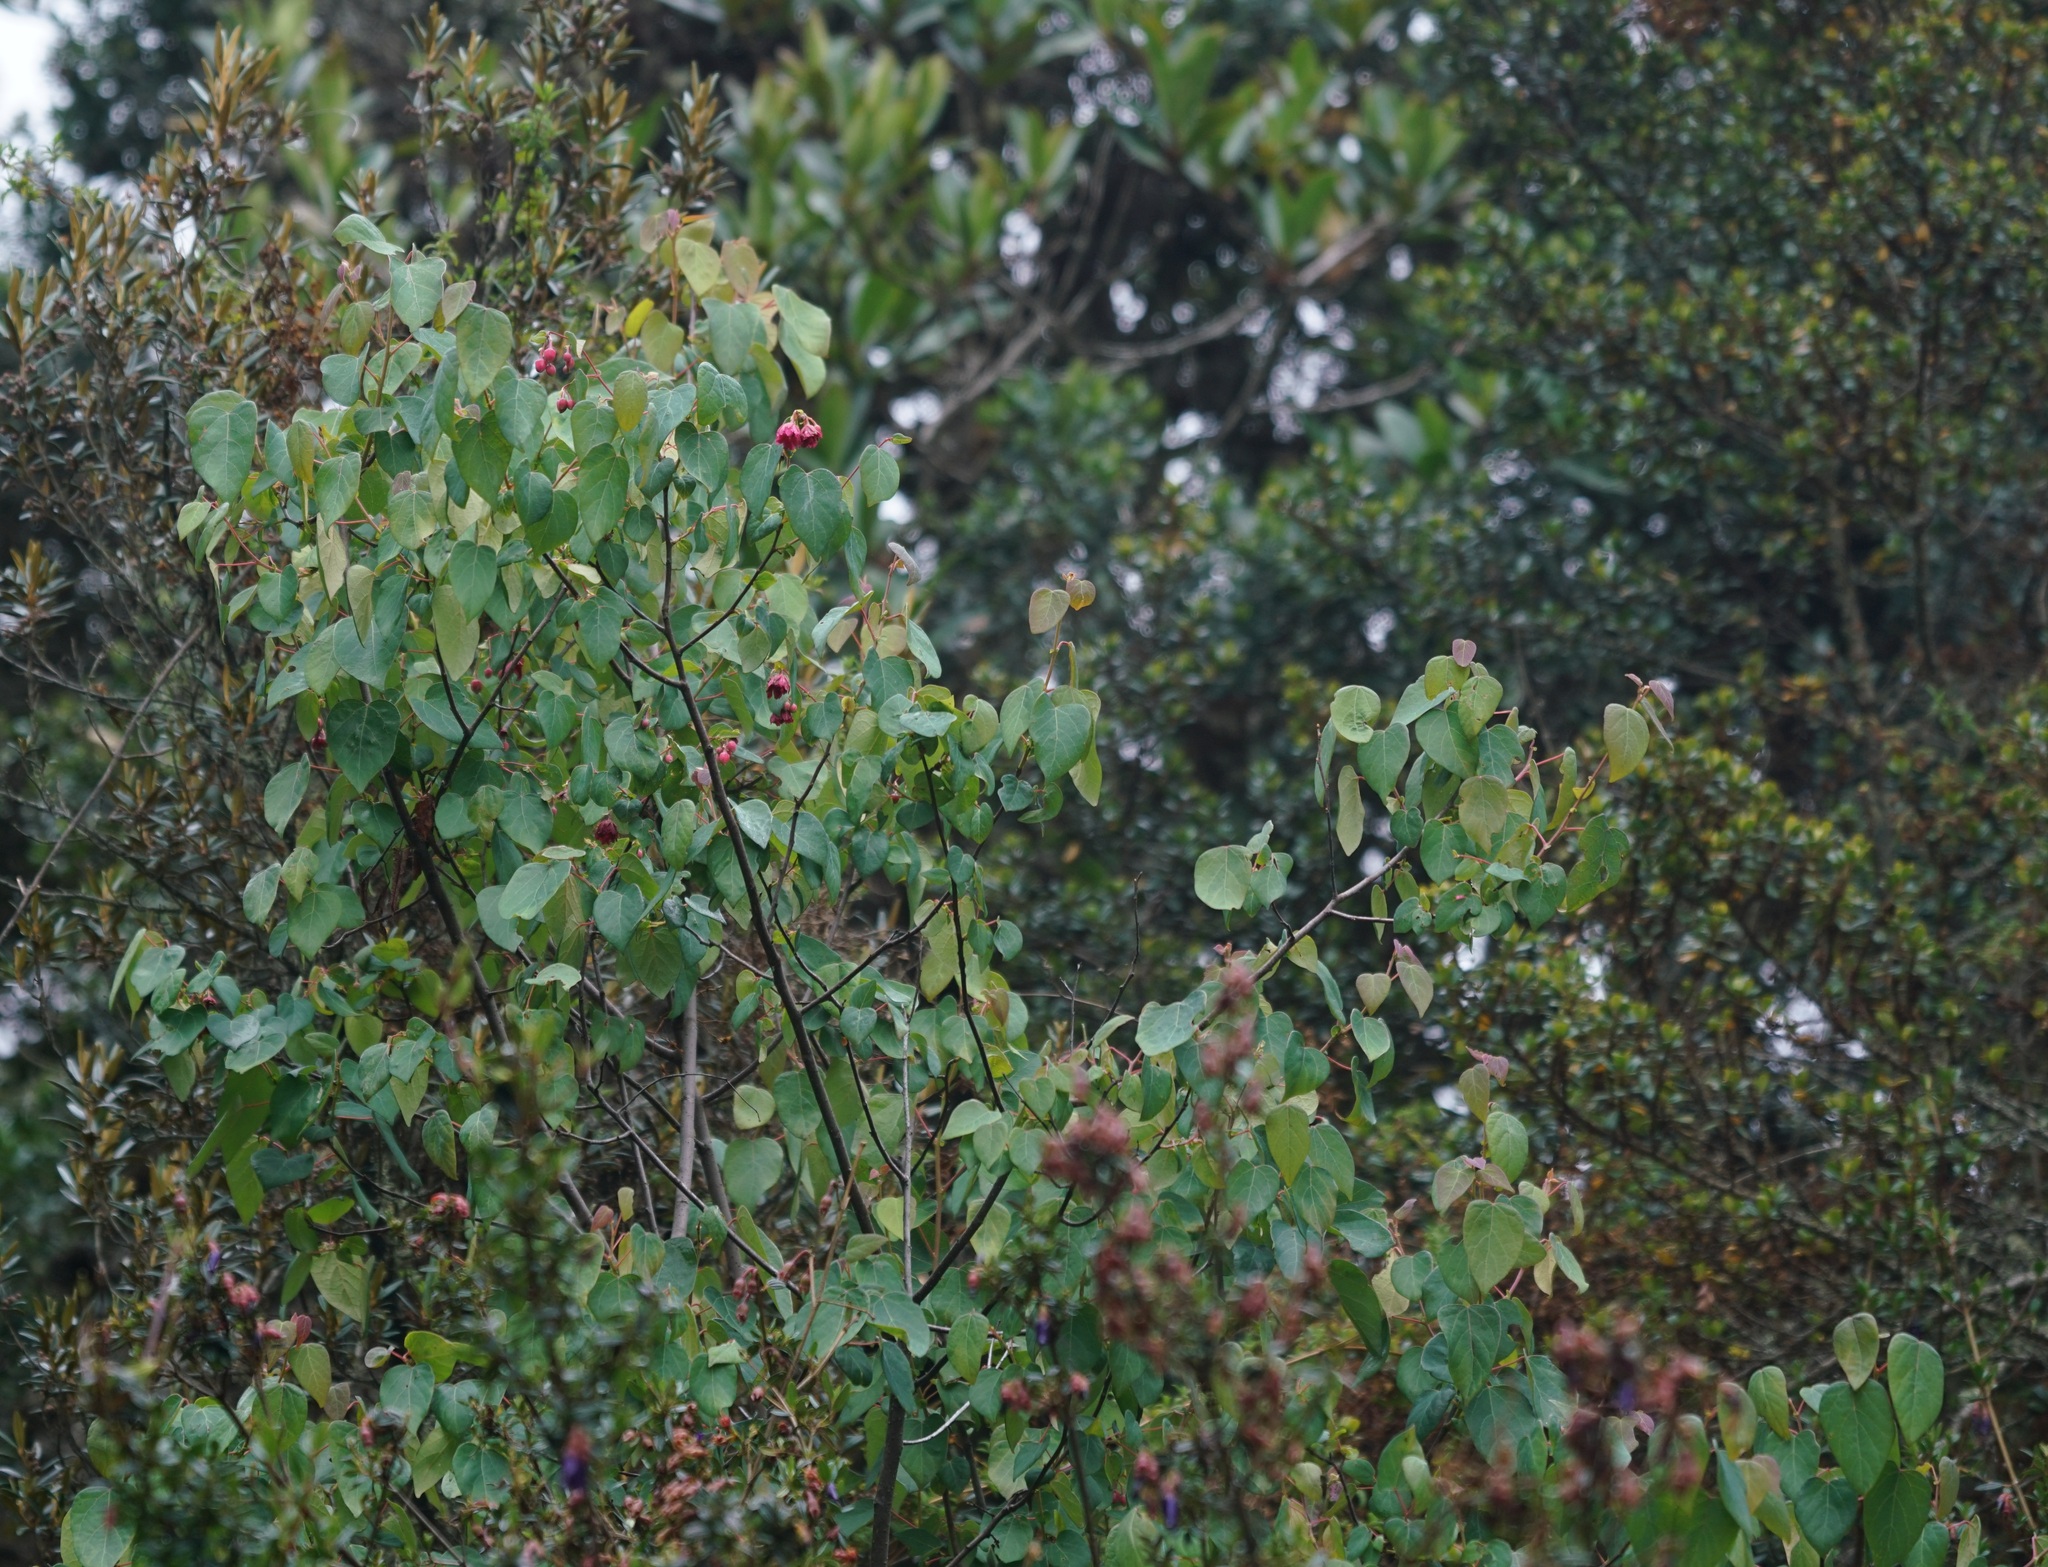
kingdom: Plantae
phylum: Tracheophyta
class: Magnoliopsida
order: Oxalidales
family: Elaeocarpaceae
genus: Vallea
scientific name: Vallea stipularis
